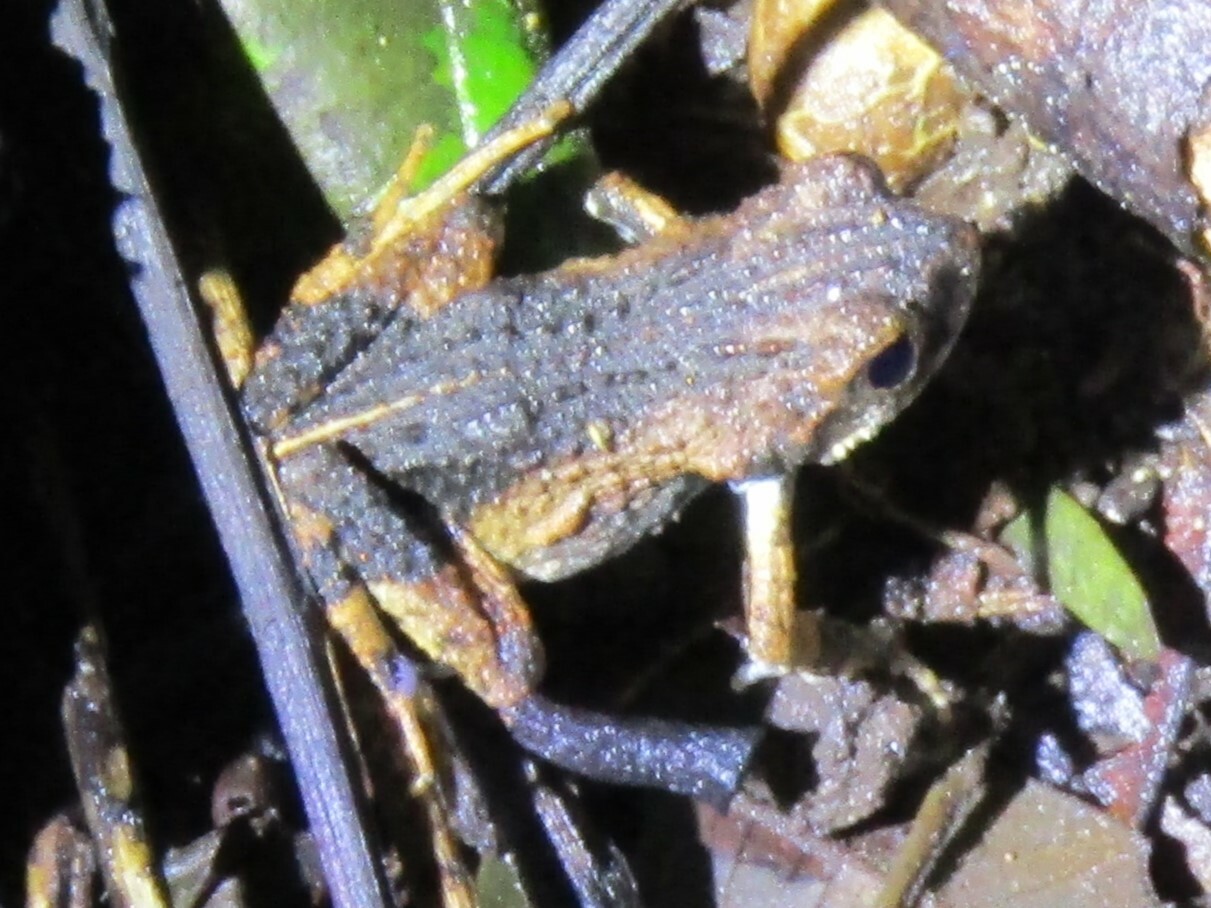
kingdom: Animalia
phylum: Chordata
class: Amphibia
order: Anura
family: Leptodactylidae
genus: Engystomops
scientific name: Engystomops pustulosus
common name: Tungara frog
